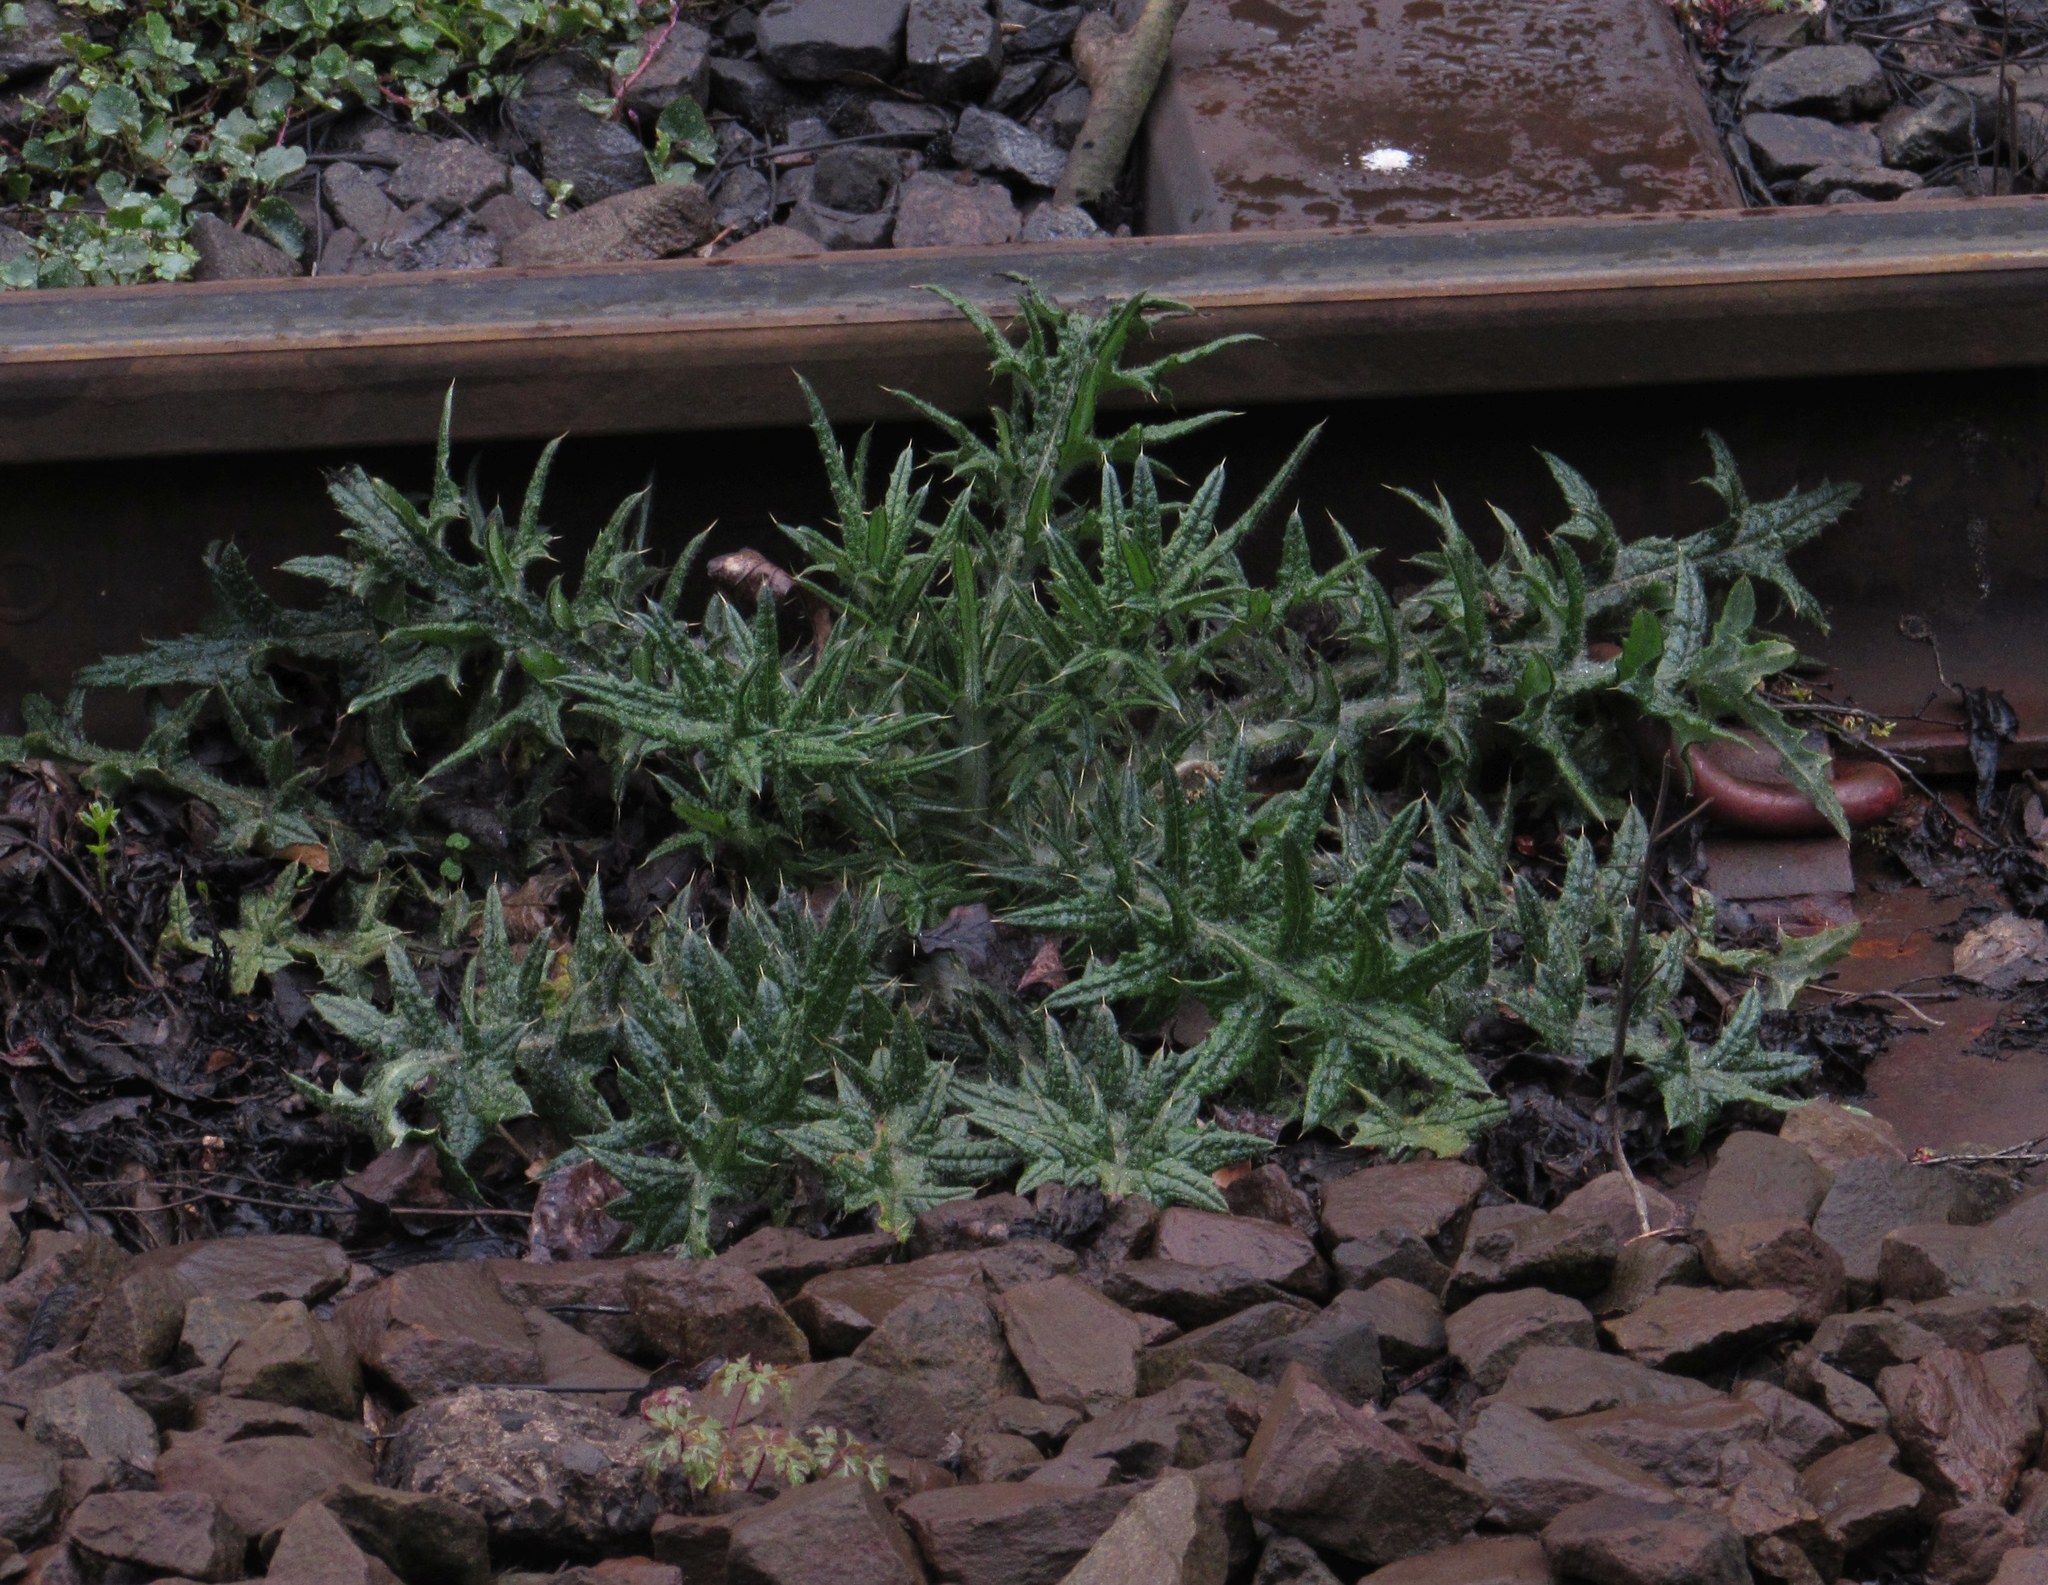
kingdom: Plantae
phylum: Tracheophyta
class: Magnoliopsida
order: Asterales
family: Asteraceae
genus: Cirsium
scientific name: Cirsium vulgare
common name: Bull thistle
